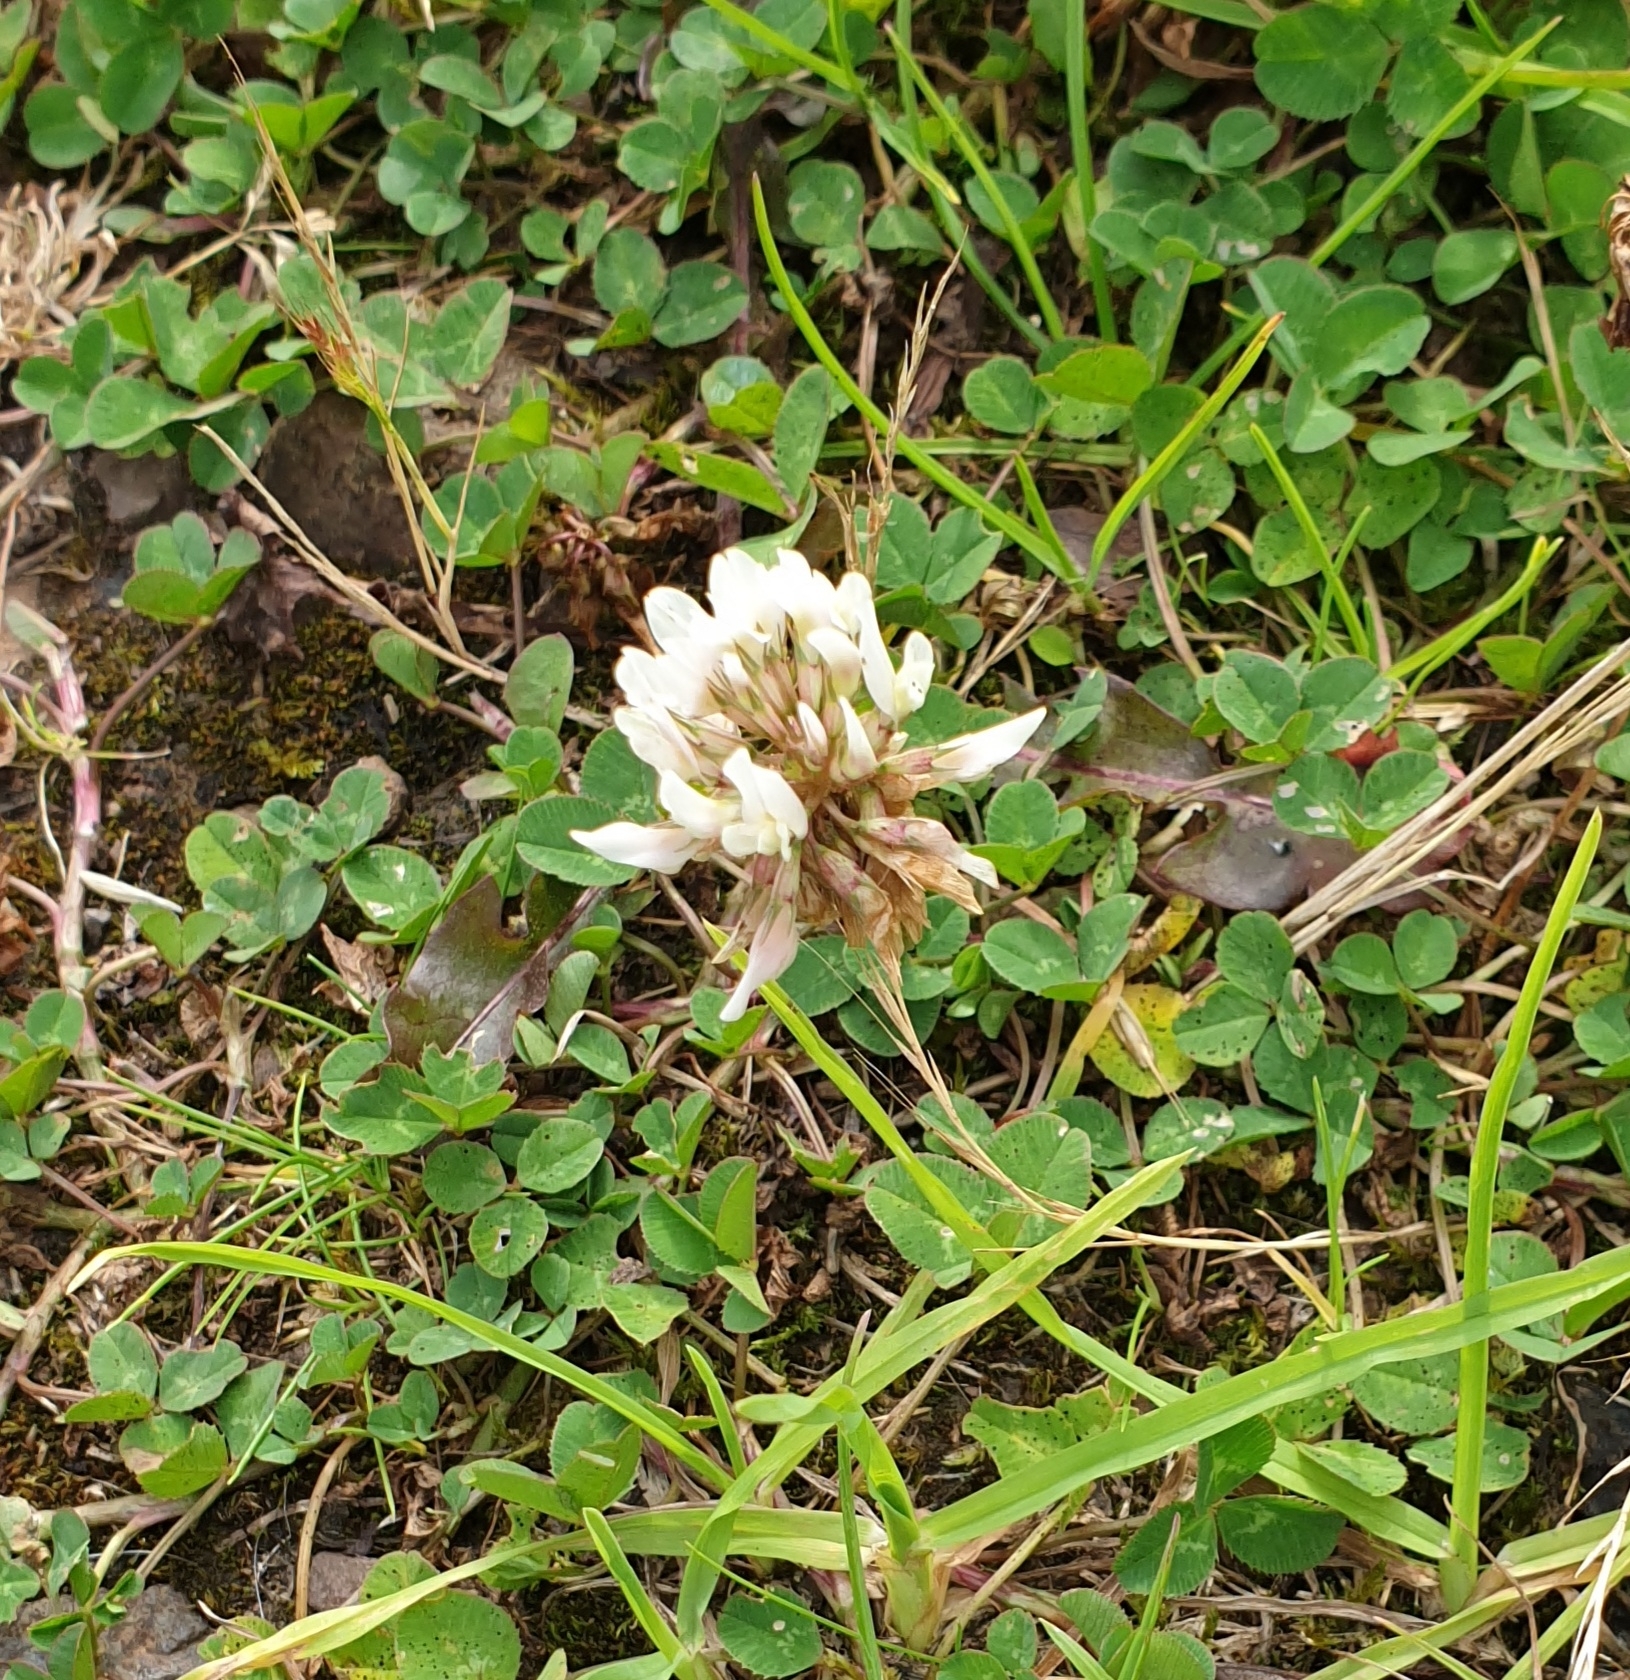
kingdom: Plantae
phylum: Tracheophyta
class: Magnoliopsida
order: Fabales
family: Fabaceae
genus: Trifolium
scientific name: Trifolium repens
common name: White clover
